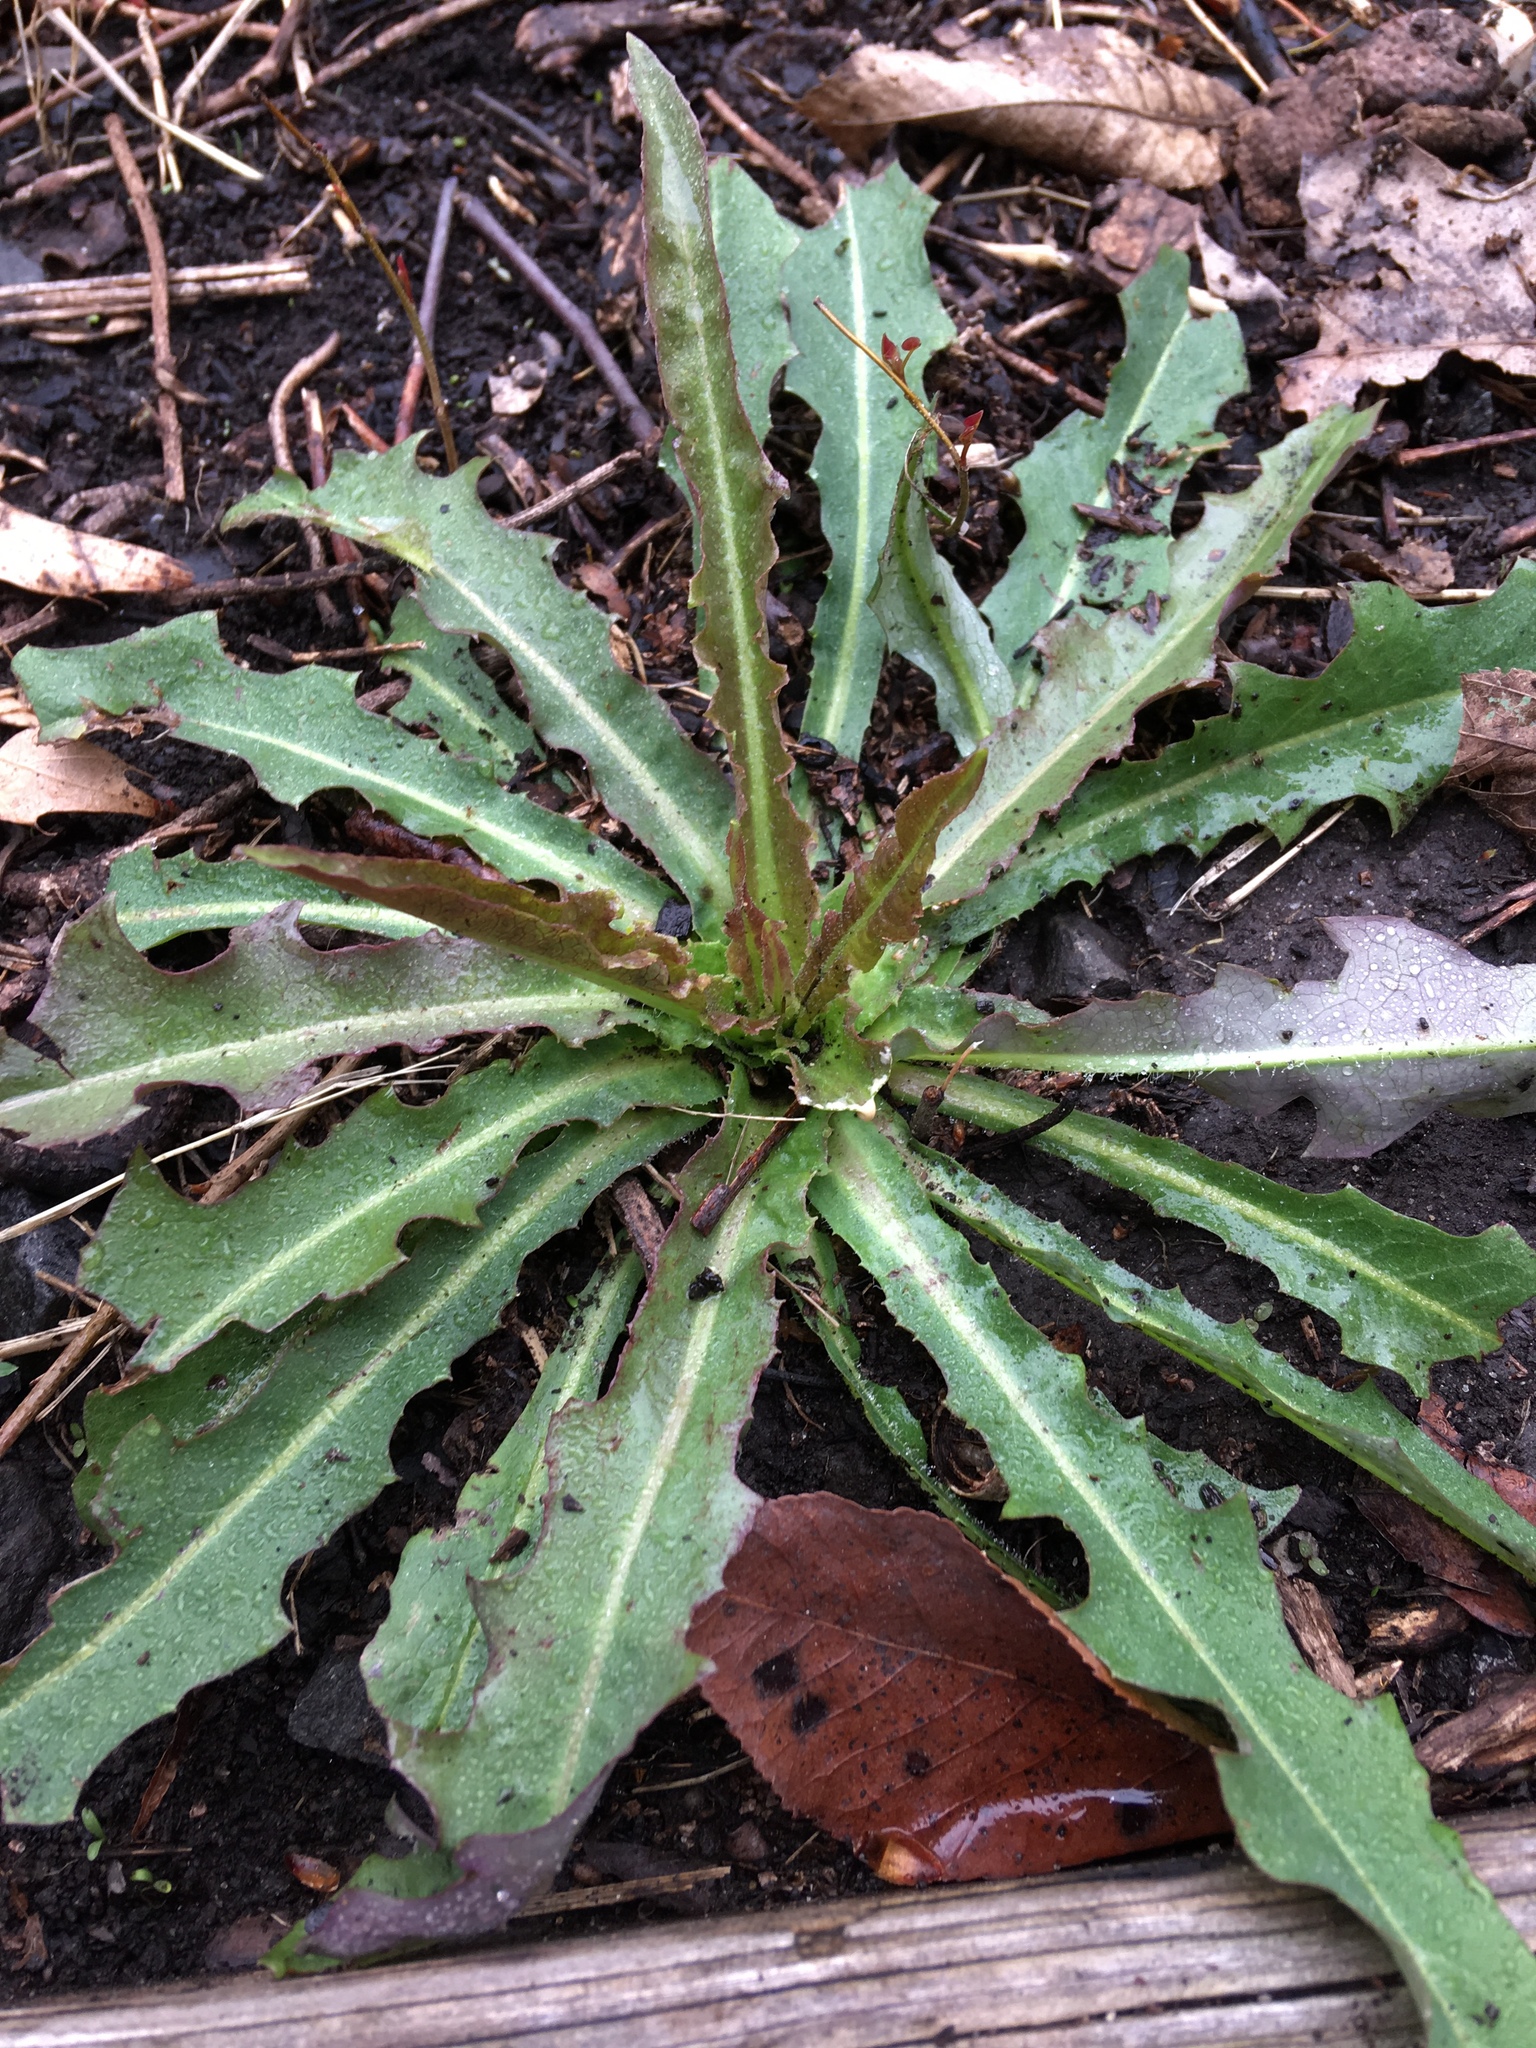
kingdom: Plantae
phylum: Tracheophyta
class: Magnoliopsida
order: Asterales
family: Asteraceae
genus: Crepis
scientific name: Crepis capillaris
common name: Smooth hawksbeard
